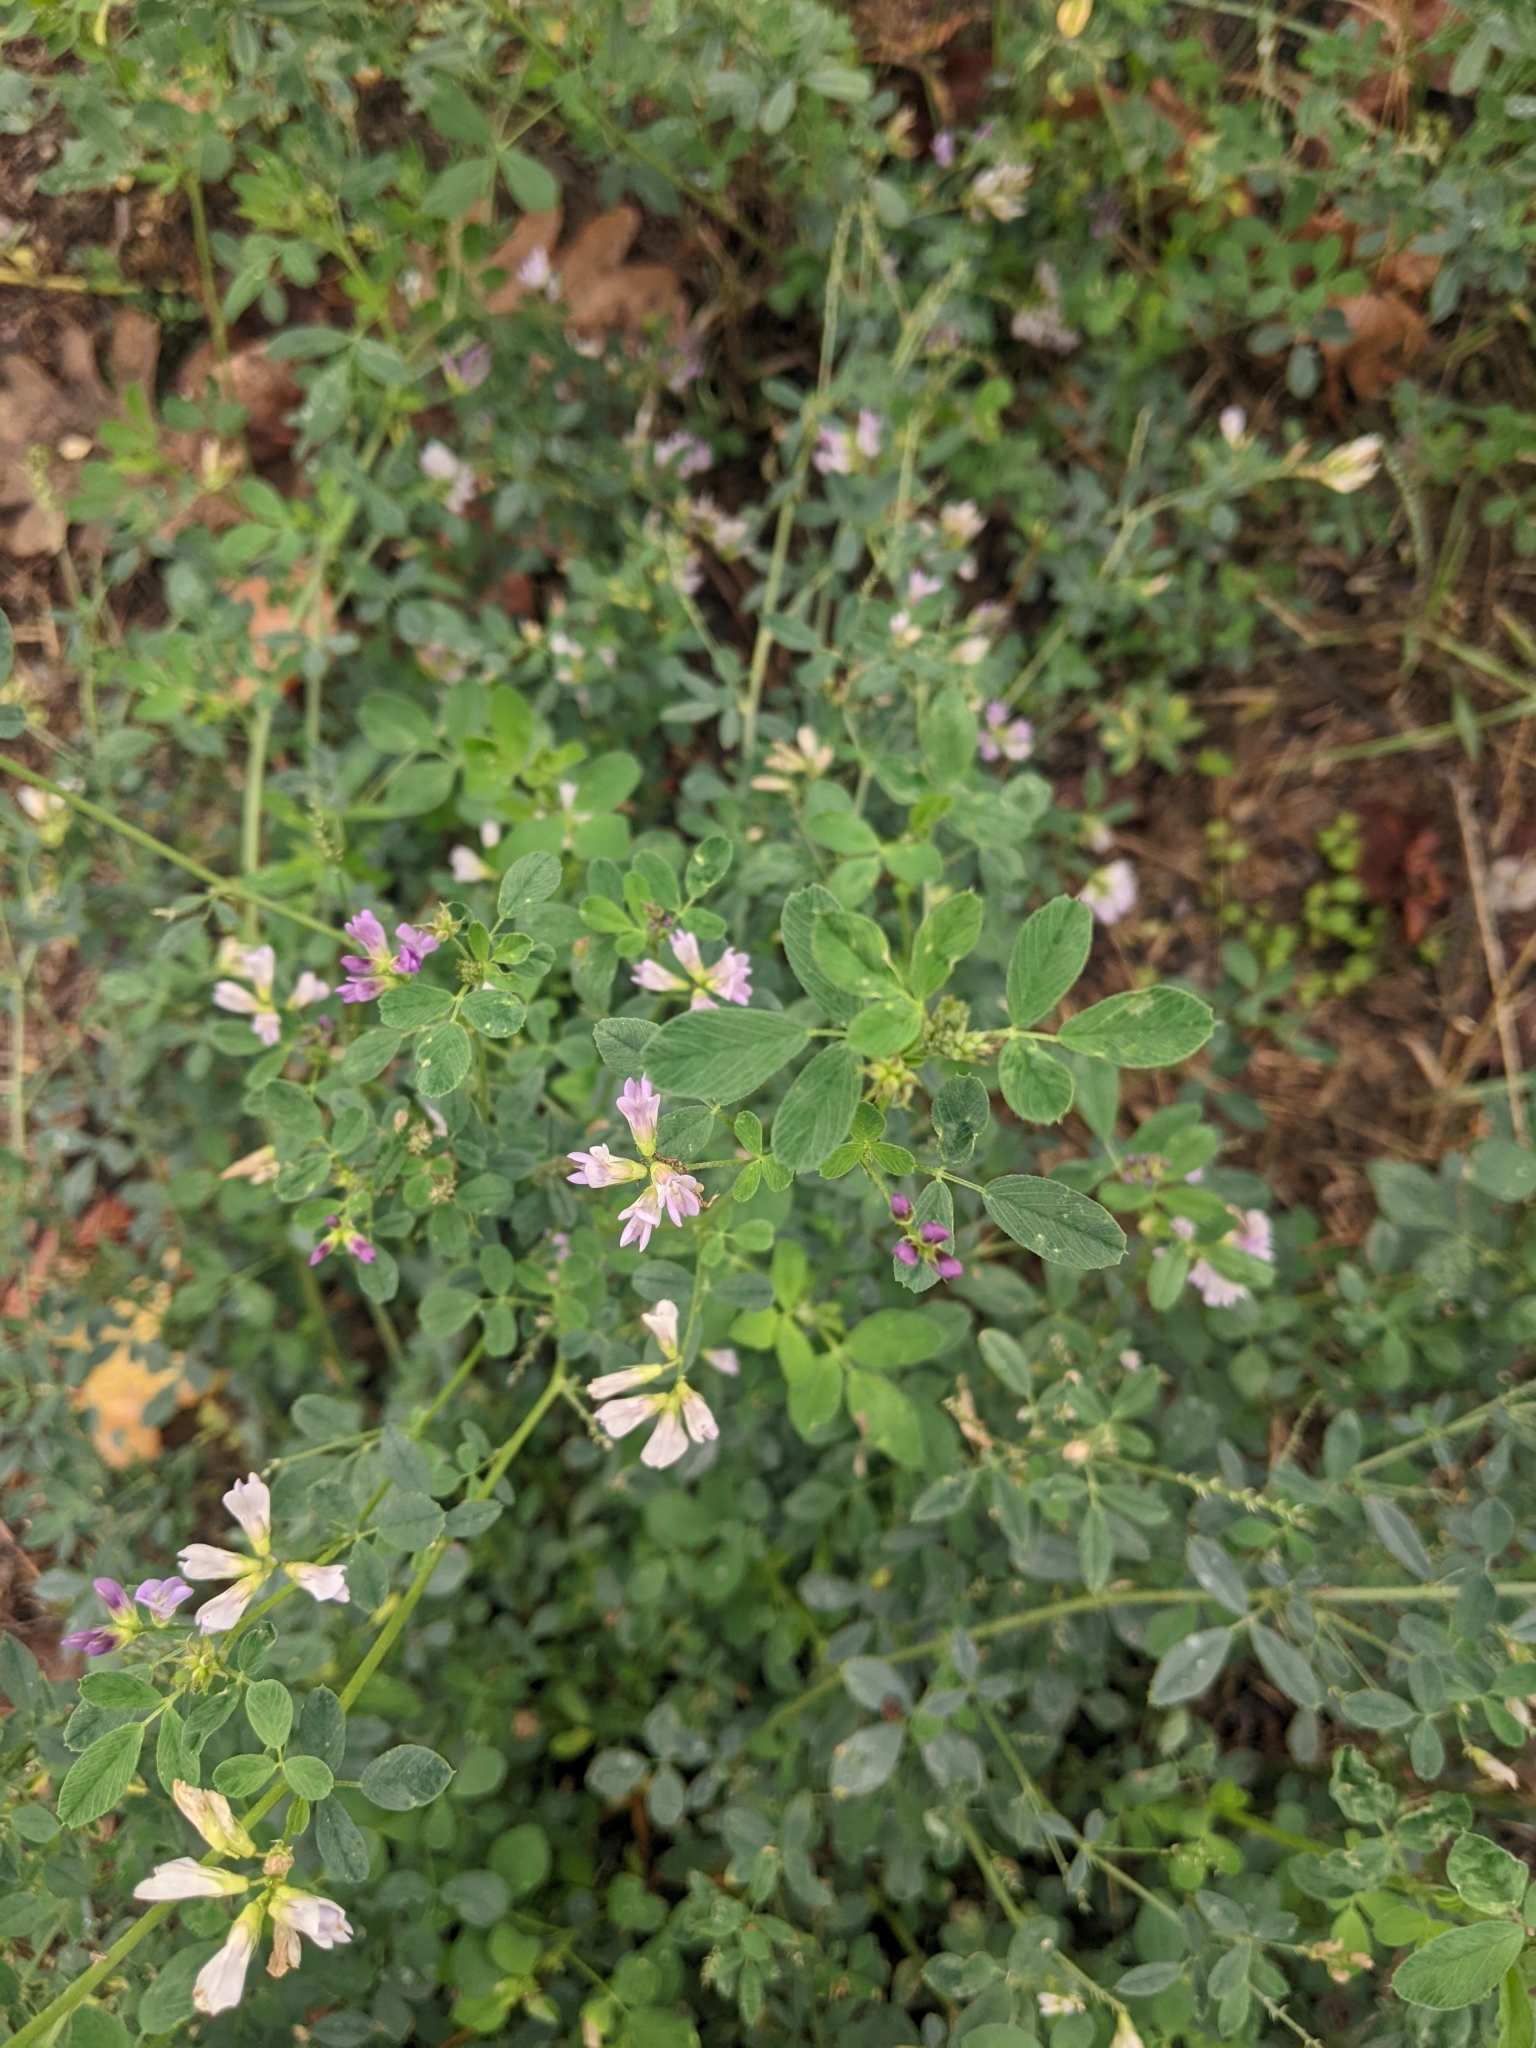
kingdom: Plantae
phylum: Tracheophyta
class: Magnoliopsida
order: Fabales
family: Fabaceae
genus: Medicago
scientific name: Medicago sativa
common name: Alfalfa
